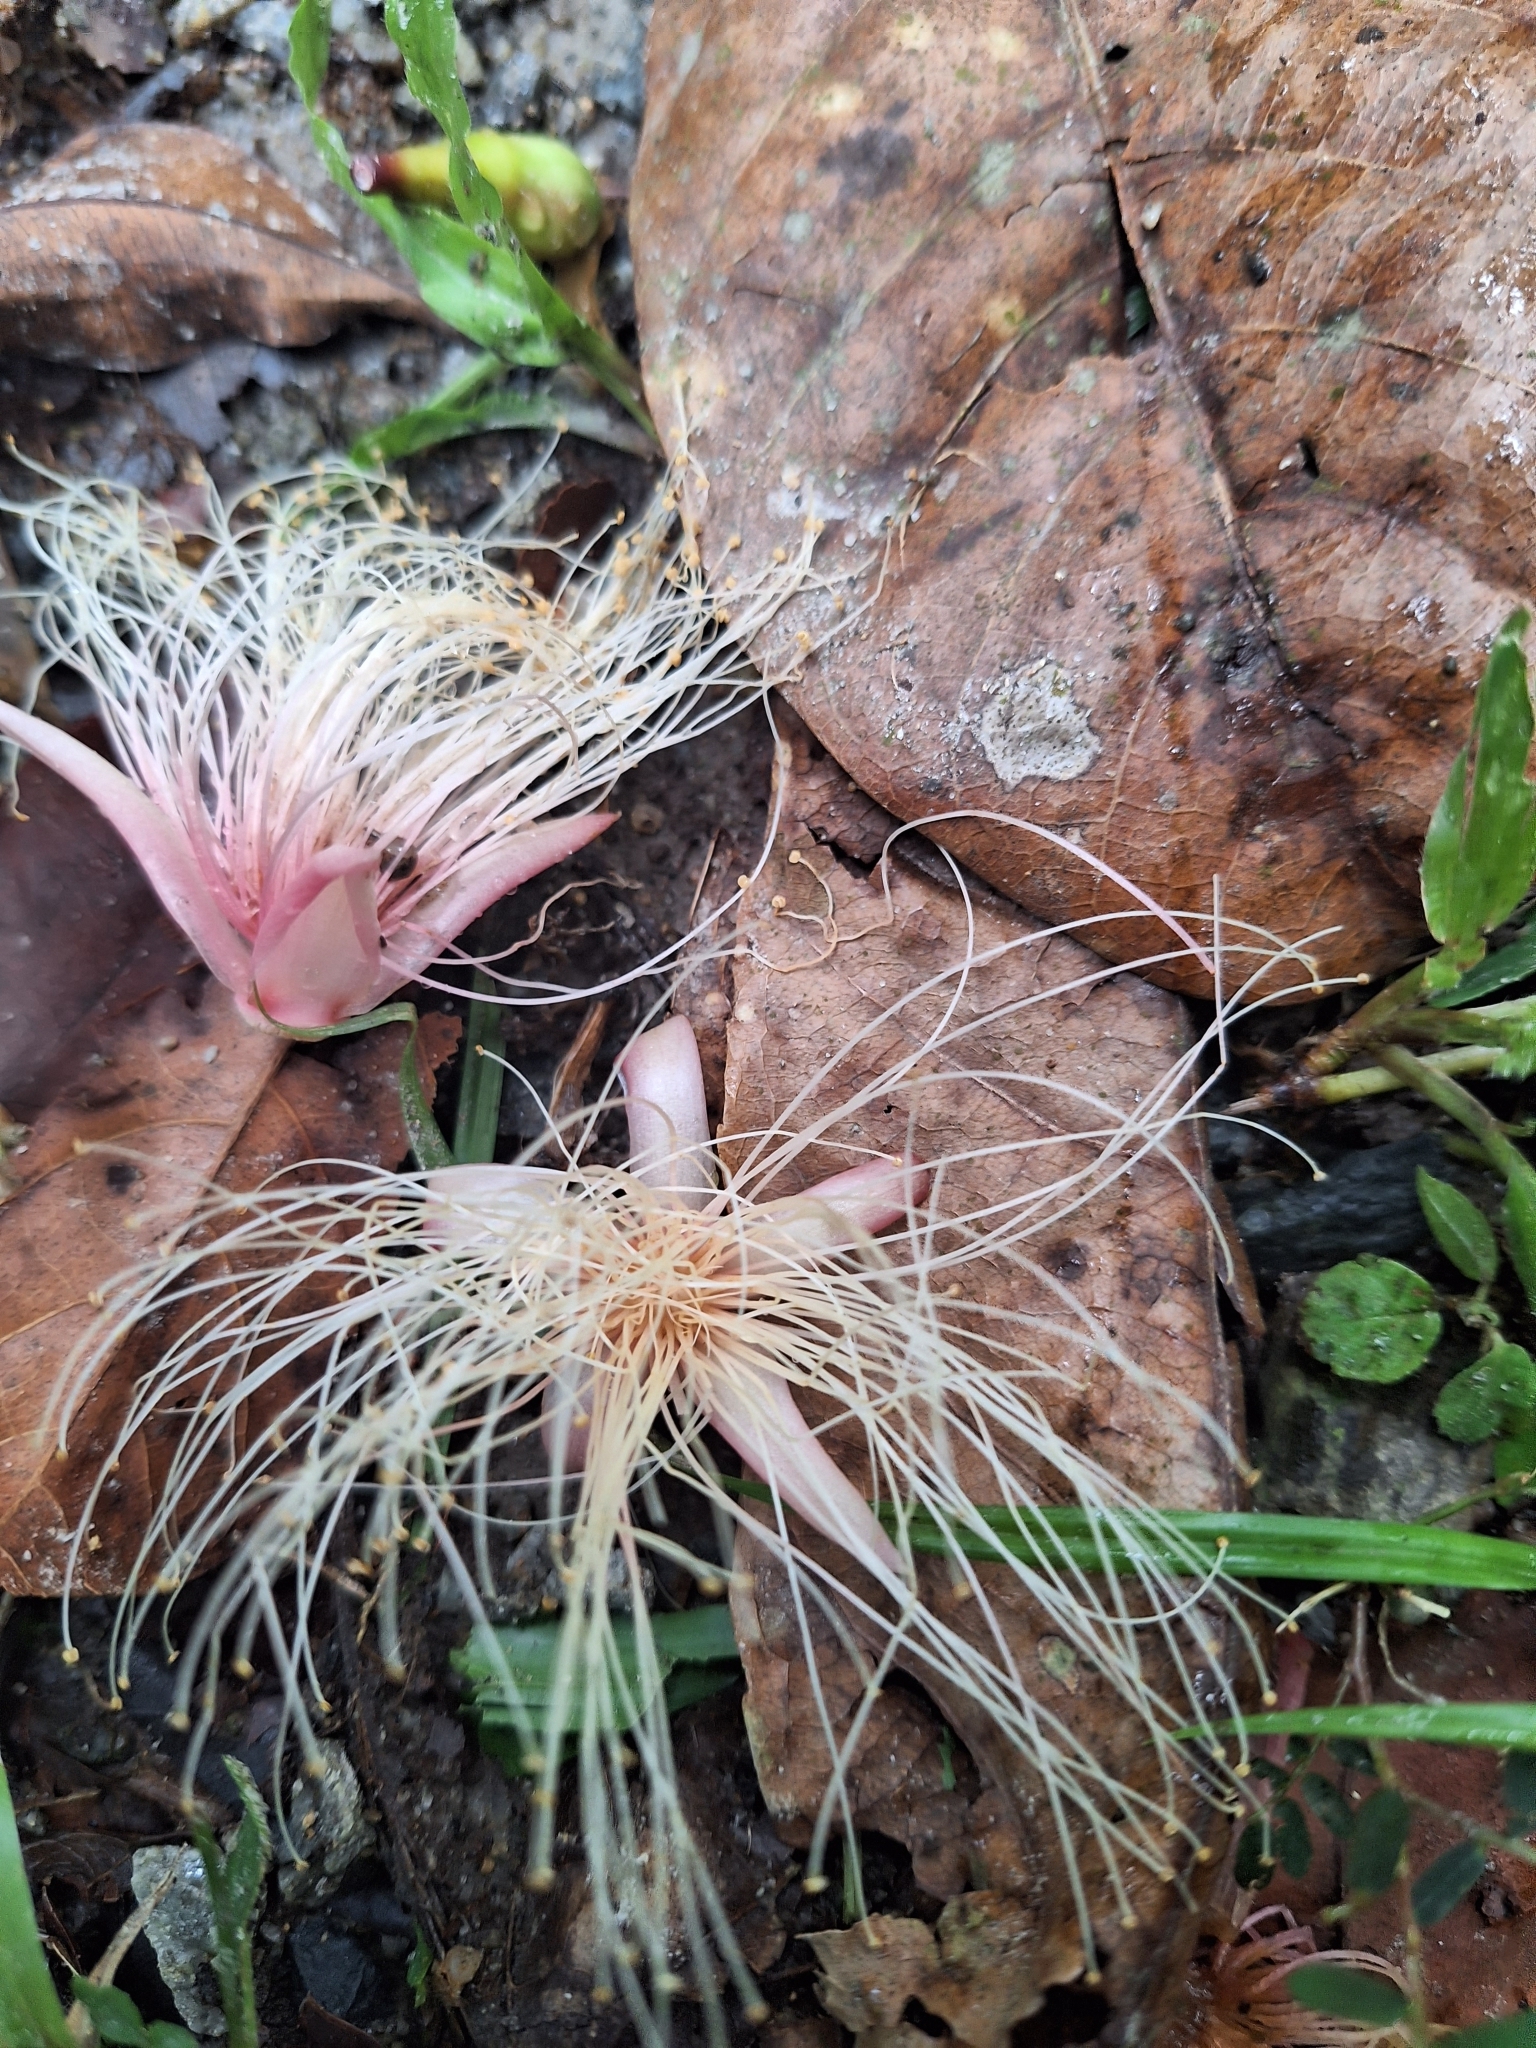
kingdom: Plantae
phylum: Tracheophyta
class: Magnoliopsida
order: Ericales
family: Lecythidaceae
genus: Barringtonia
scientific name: Barringtonia racemosa
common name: Brackwater mangrove
